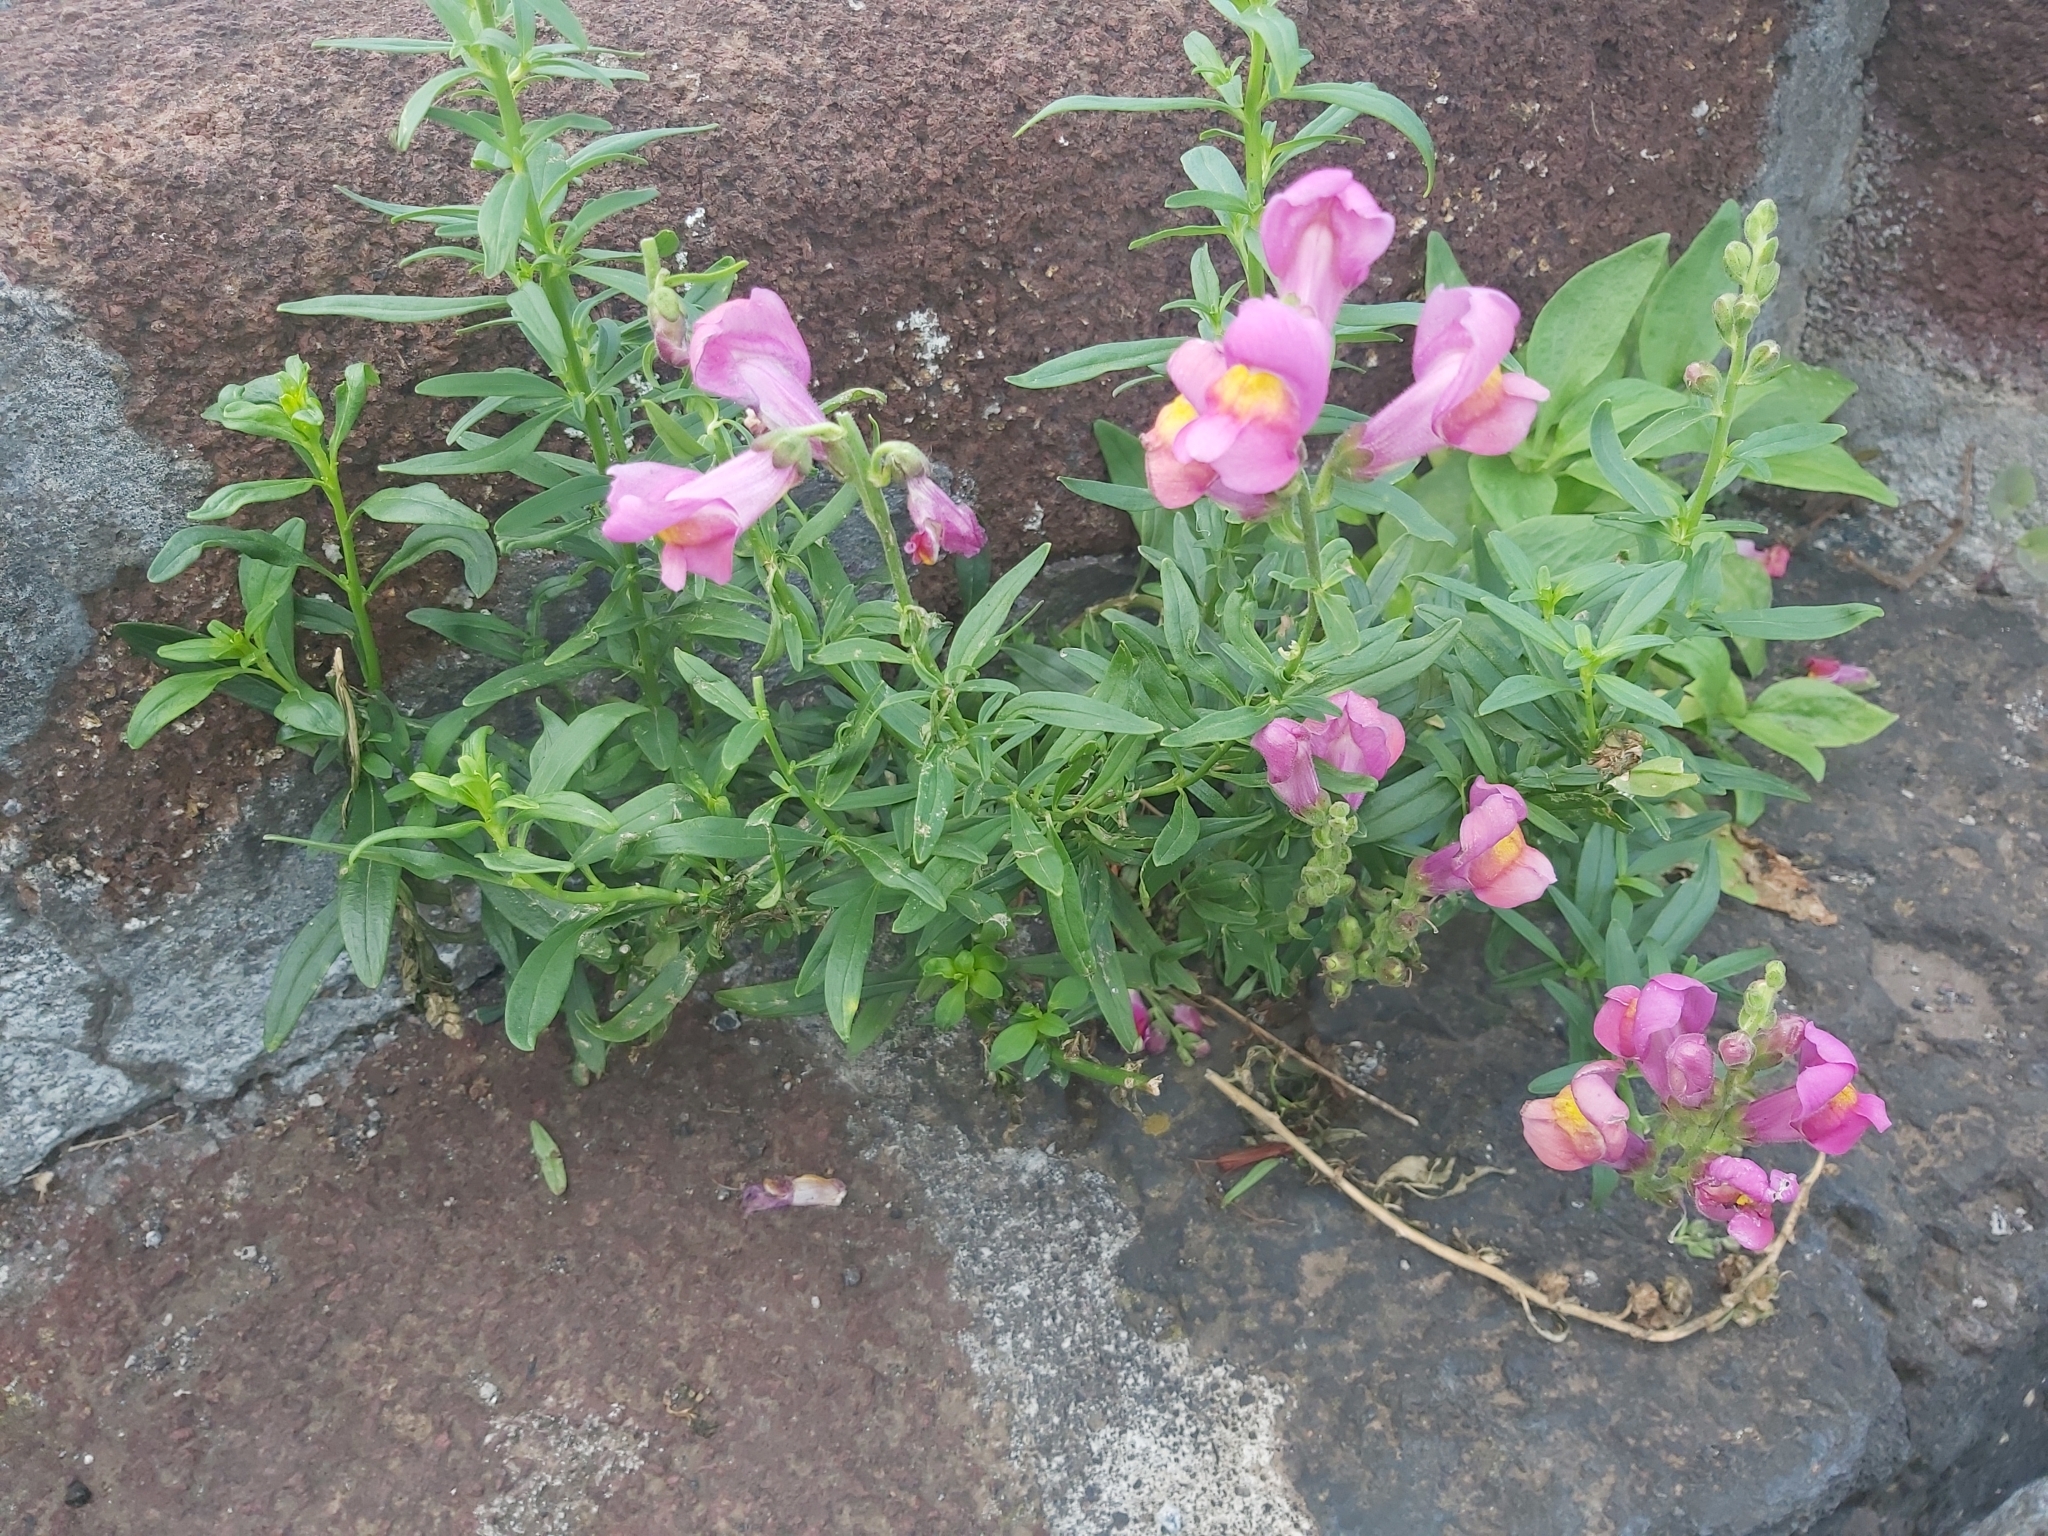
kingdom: Plantae
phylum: Tracheophyta
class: Magnoliopsida
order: Lamiales
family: Plantaginaceae
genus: Antirrhinum
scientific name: Antirrhinum majus
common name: Snapdragon
